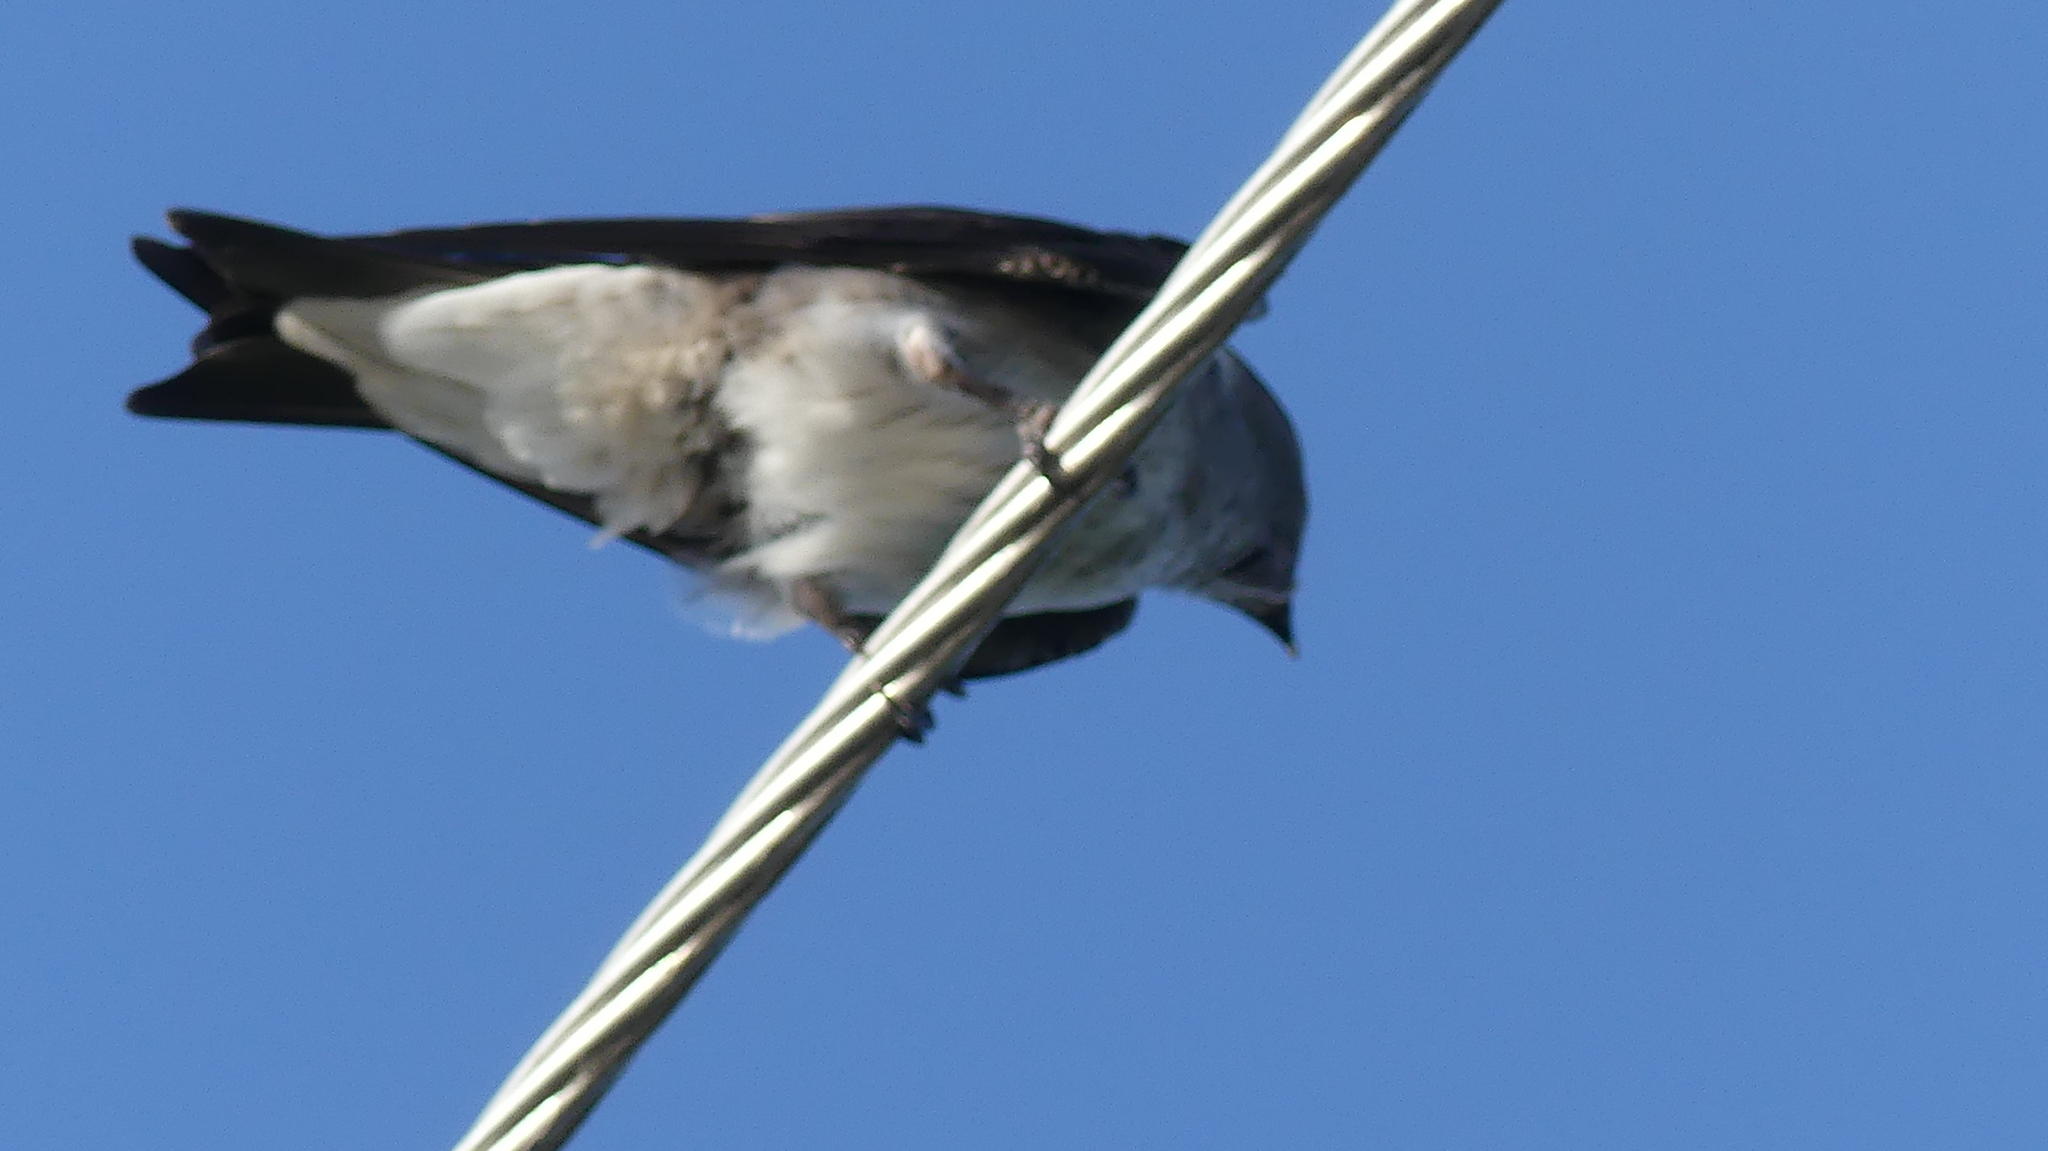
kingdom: Animalia
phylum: Chordata
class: Aves
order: Passeriformes
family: Hirundinidae
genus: Tachycineta
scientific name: Tachycineta bicolor
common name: Tree swallow
